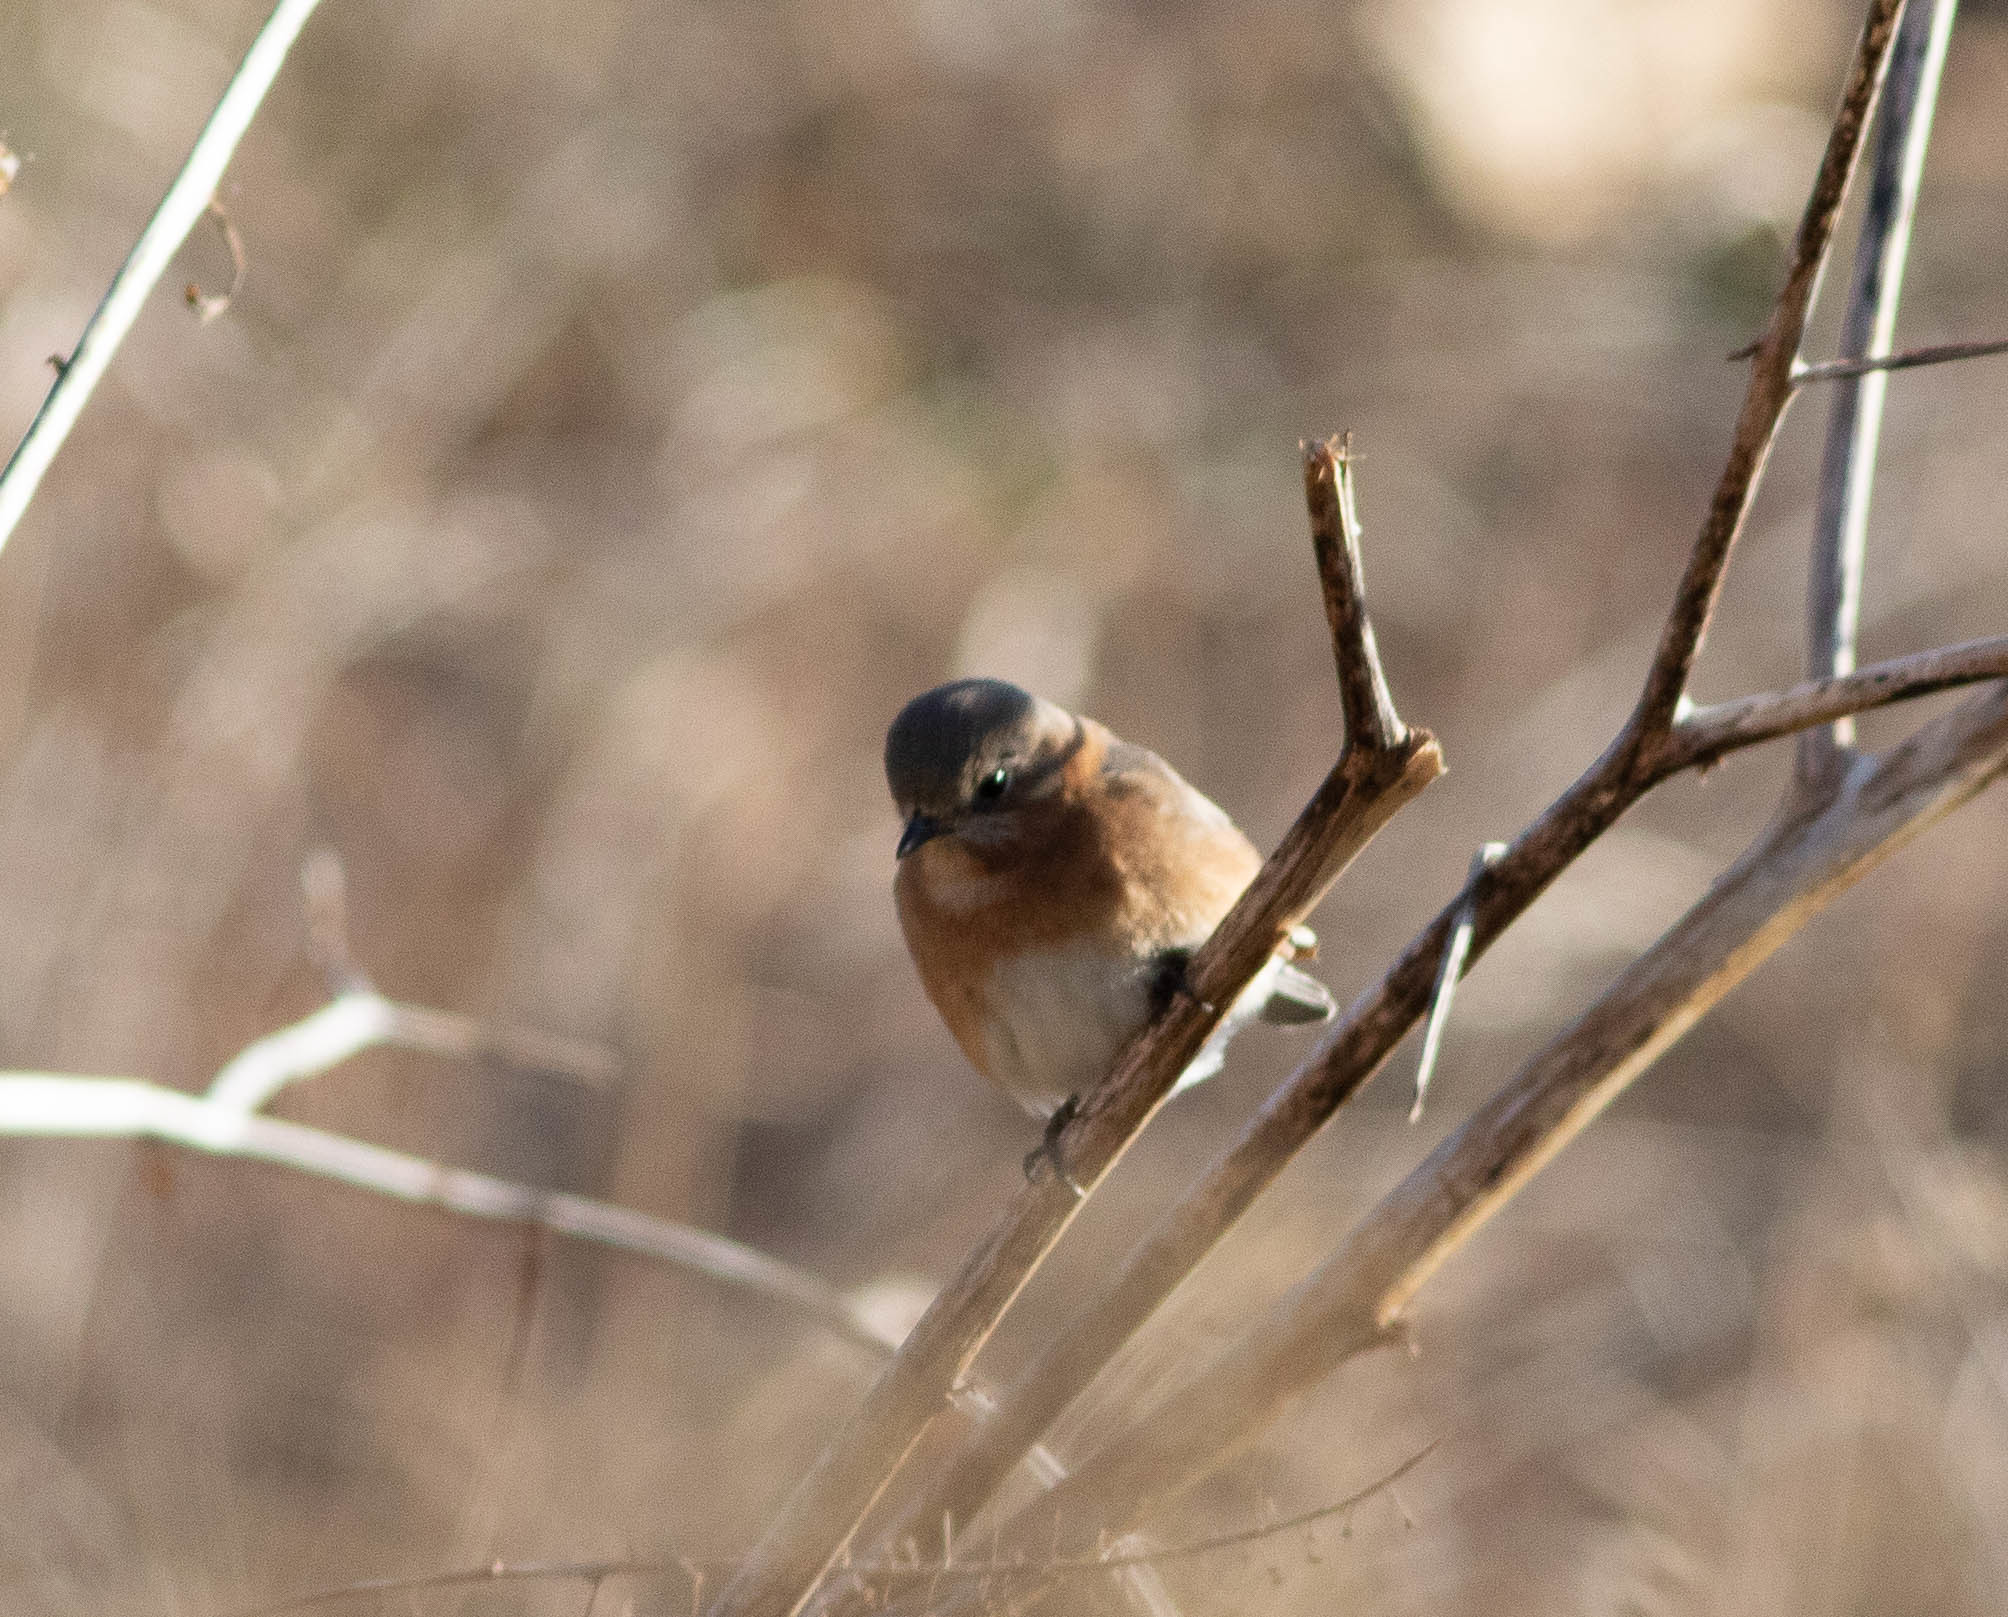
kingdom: Animalia
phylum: Chordata
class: Aves
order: Passeriformes
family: Turdidae
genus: Sialia
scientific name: Sialia sialis
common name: Eastern bluebird
